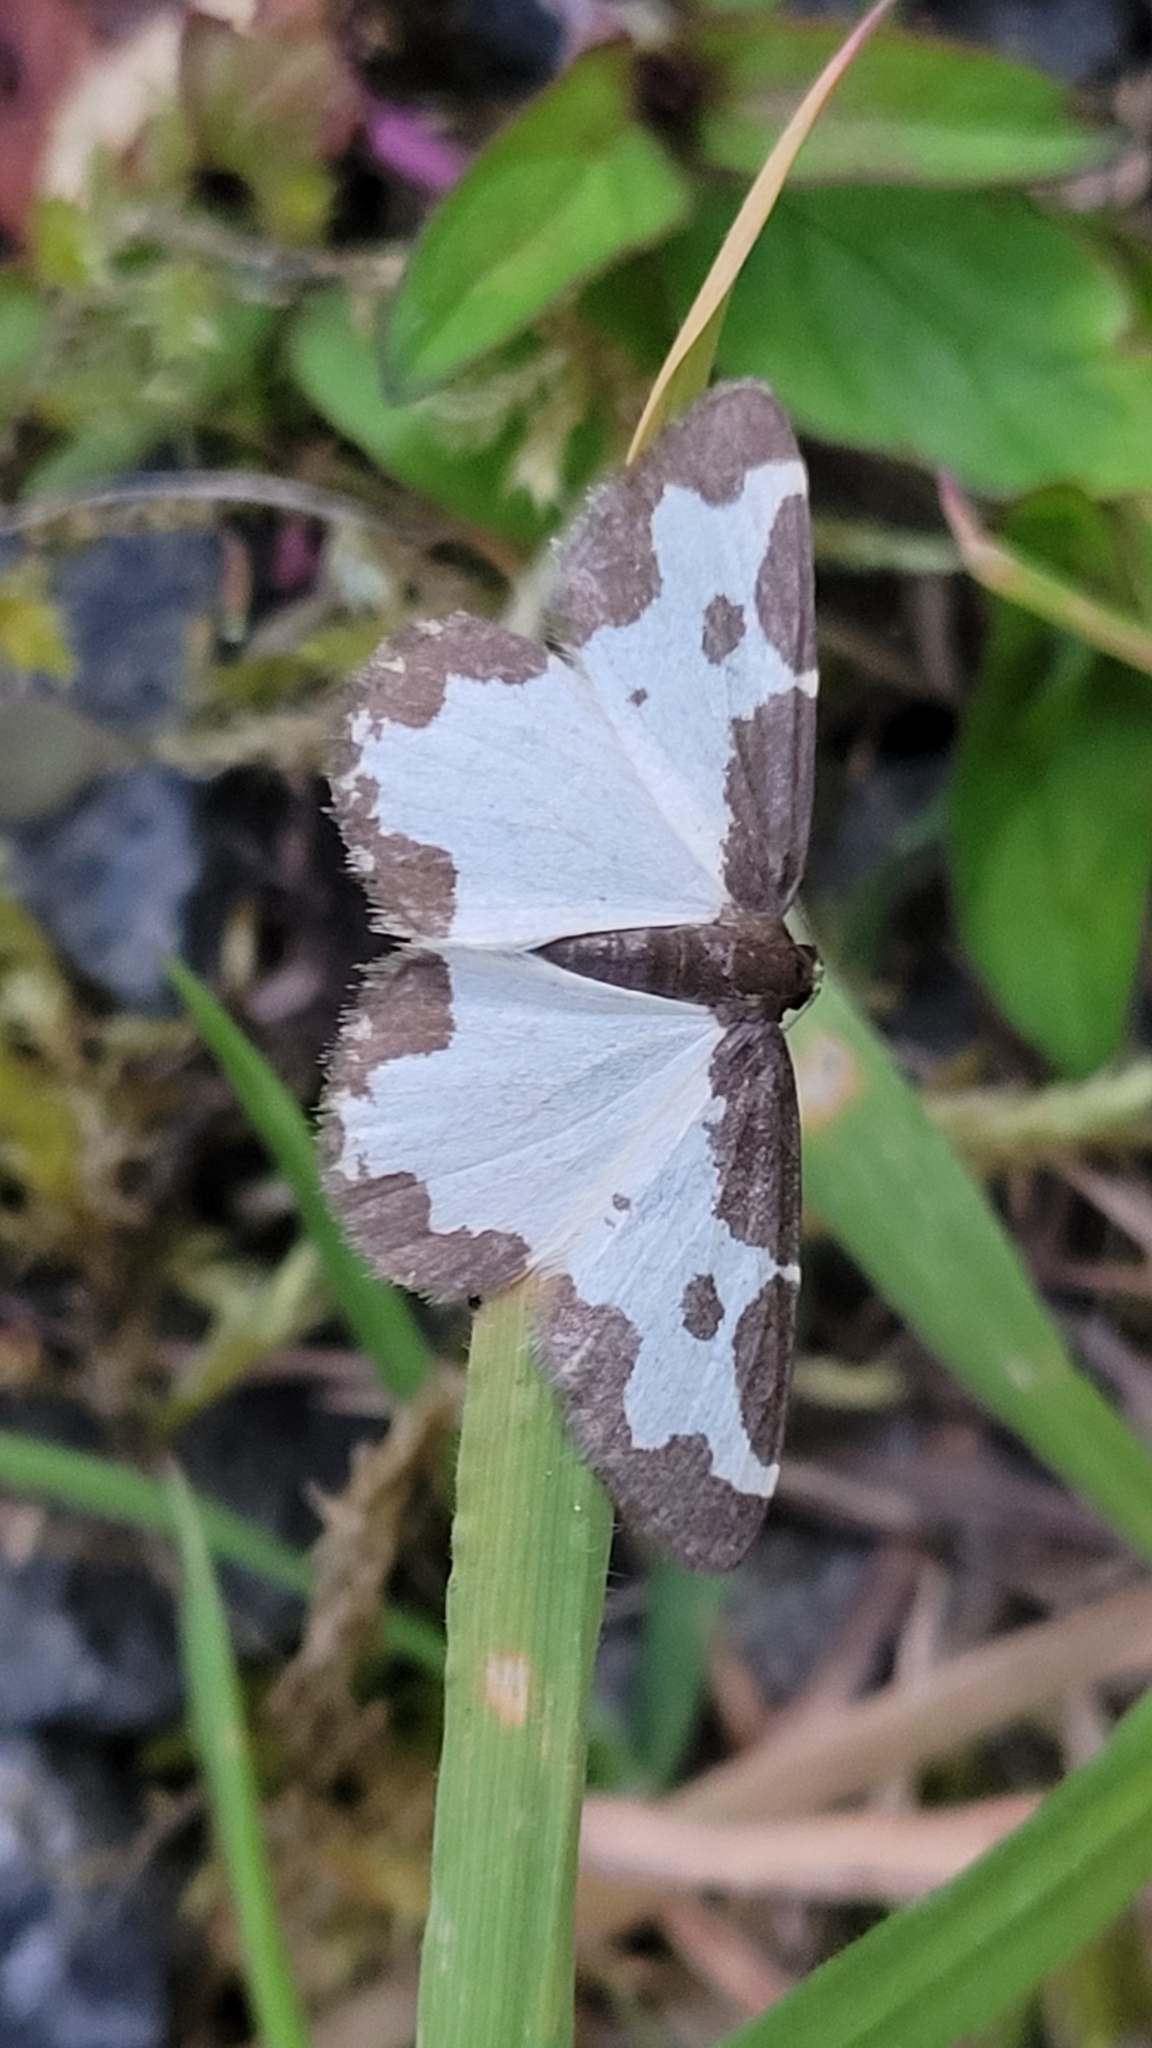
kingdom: Animalia
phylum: Arthropoda
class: Insecta
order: Lepidoptera
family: Geometridae
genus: Lomaspilis
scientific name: Lomaspilis marginata
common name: Clouded border
